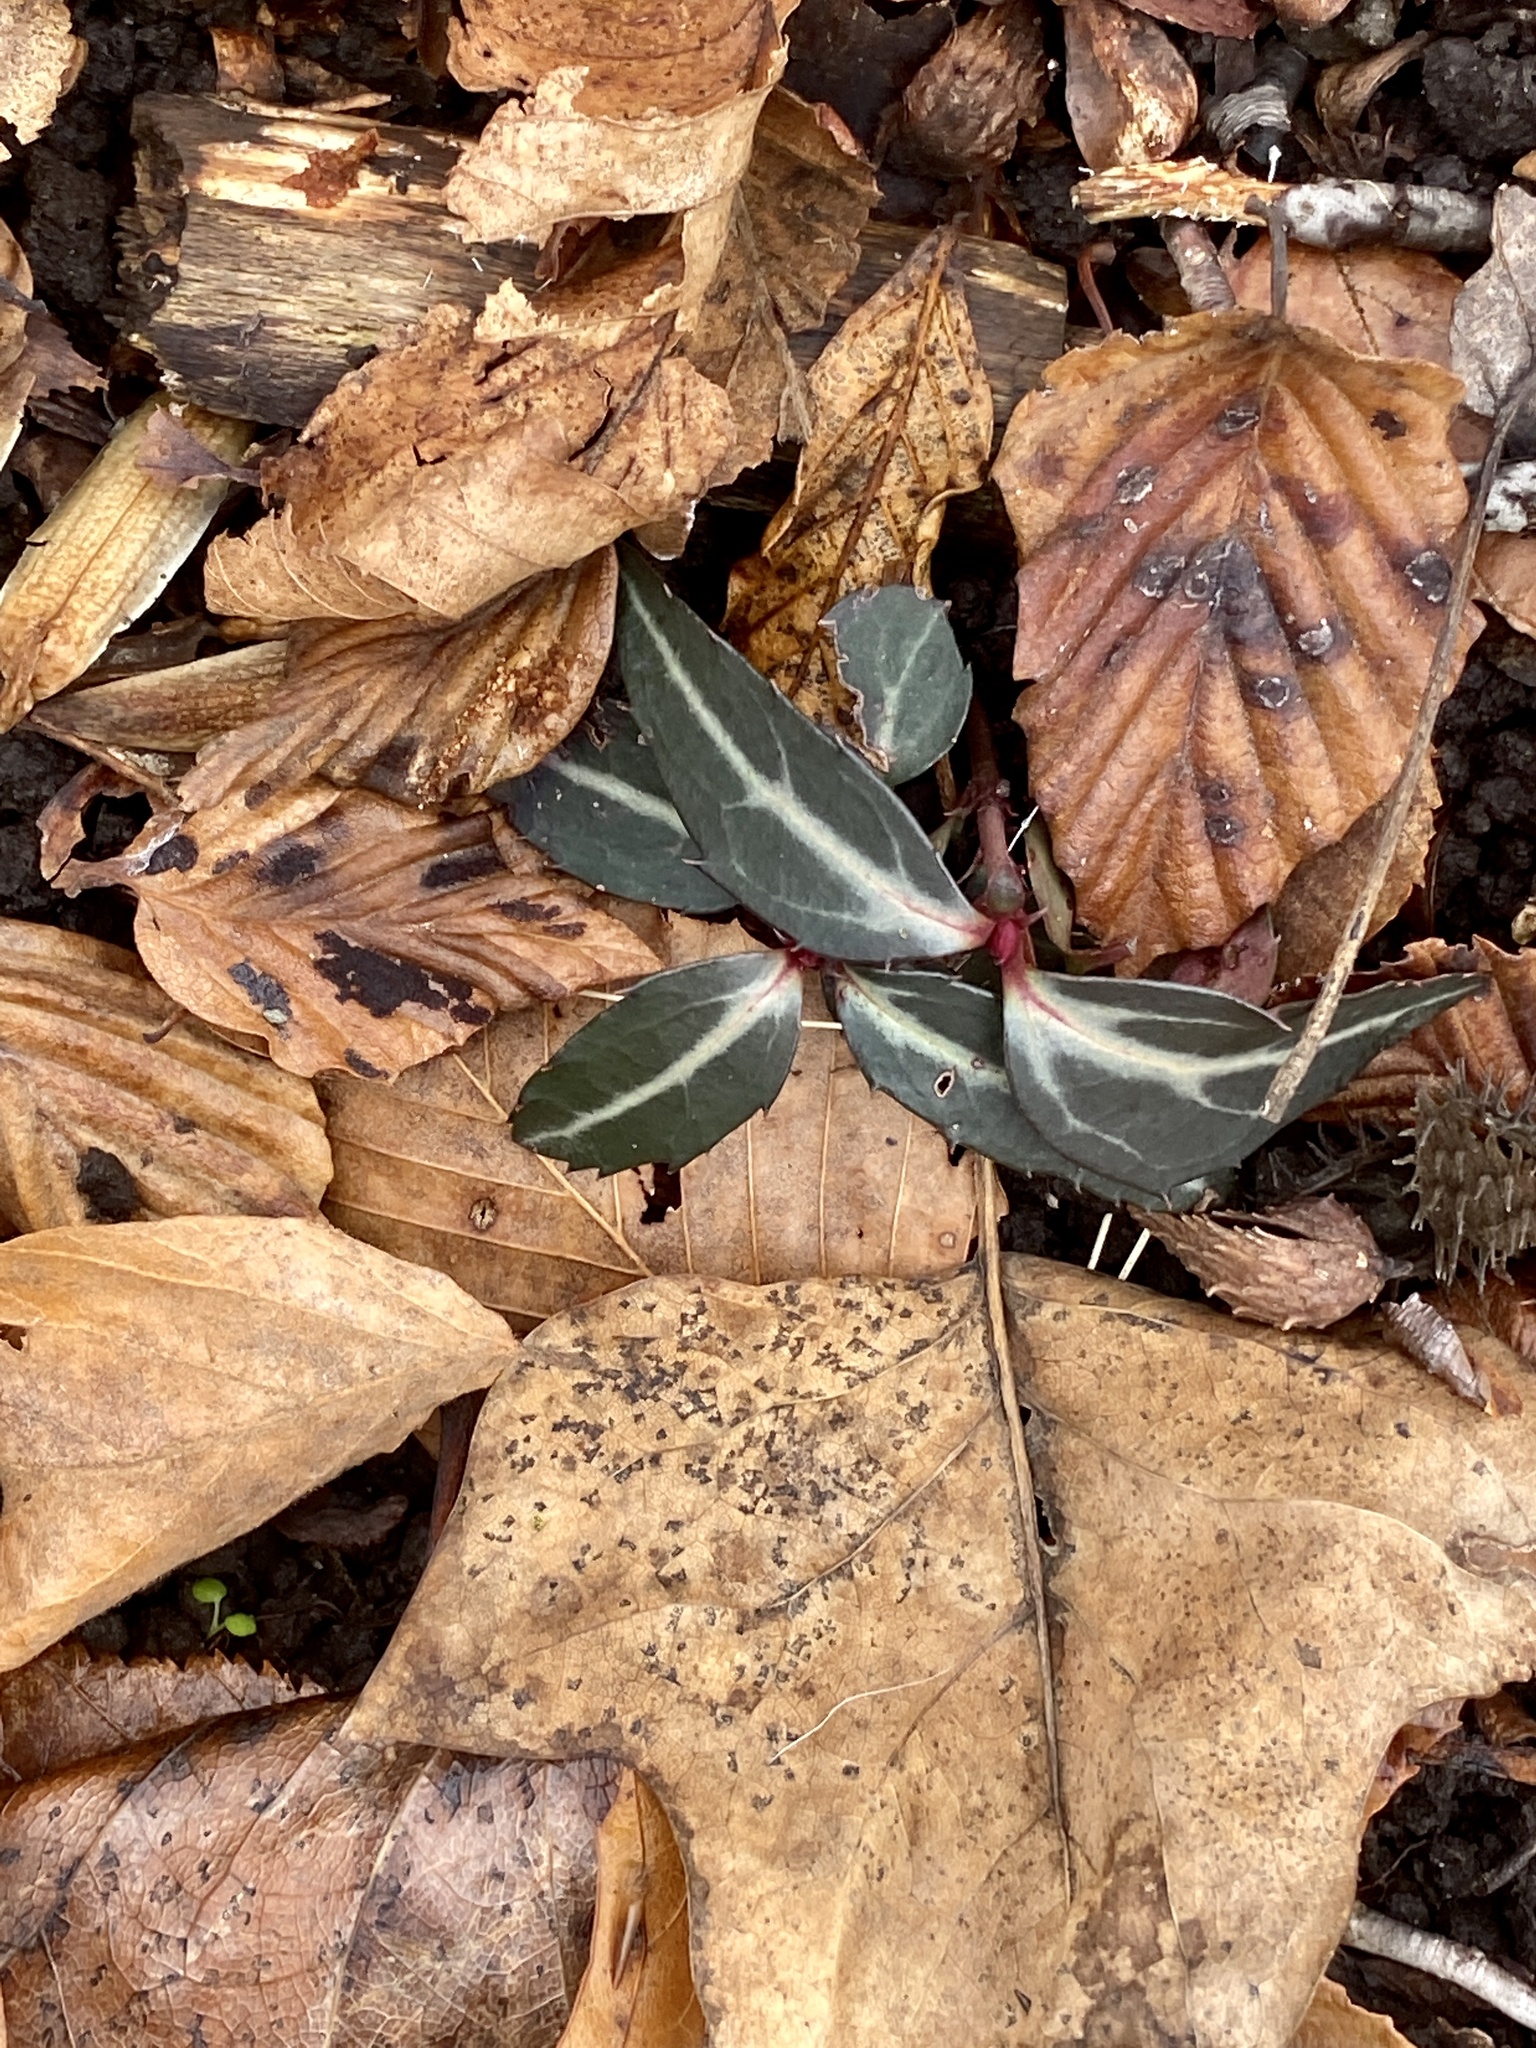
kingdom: Plantae
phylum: Tracheophyta
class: Magnoliopsida
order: Ericales
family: Ericaceae
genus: Chimaphila
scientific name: Chimaphila maculata
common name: Spotted pipsissewa
